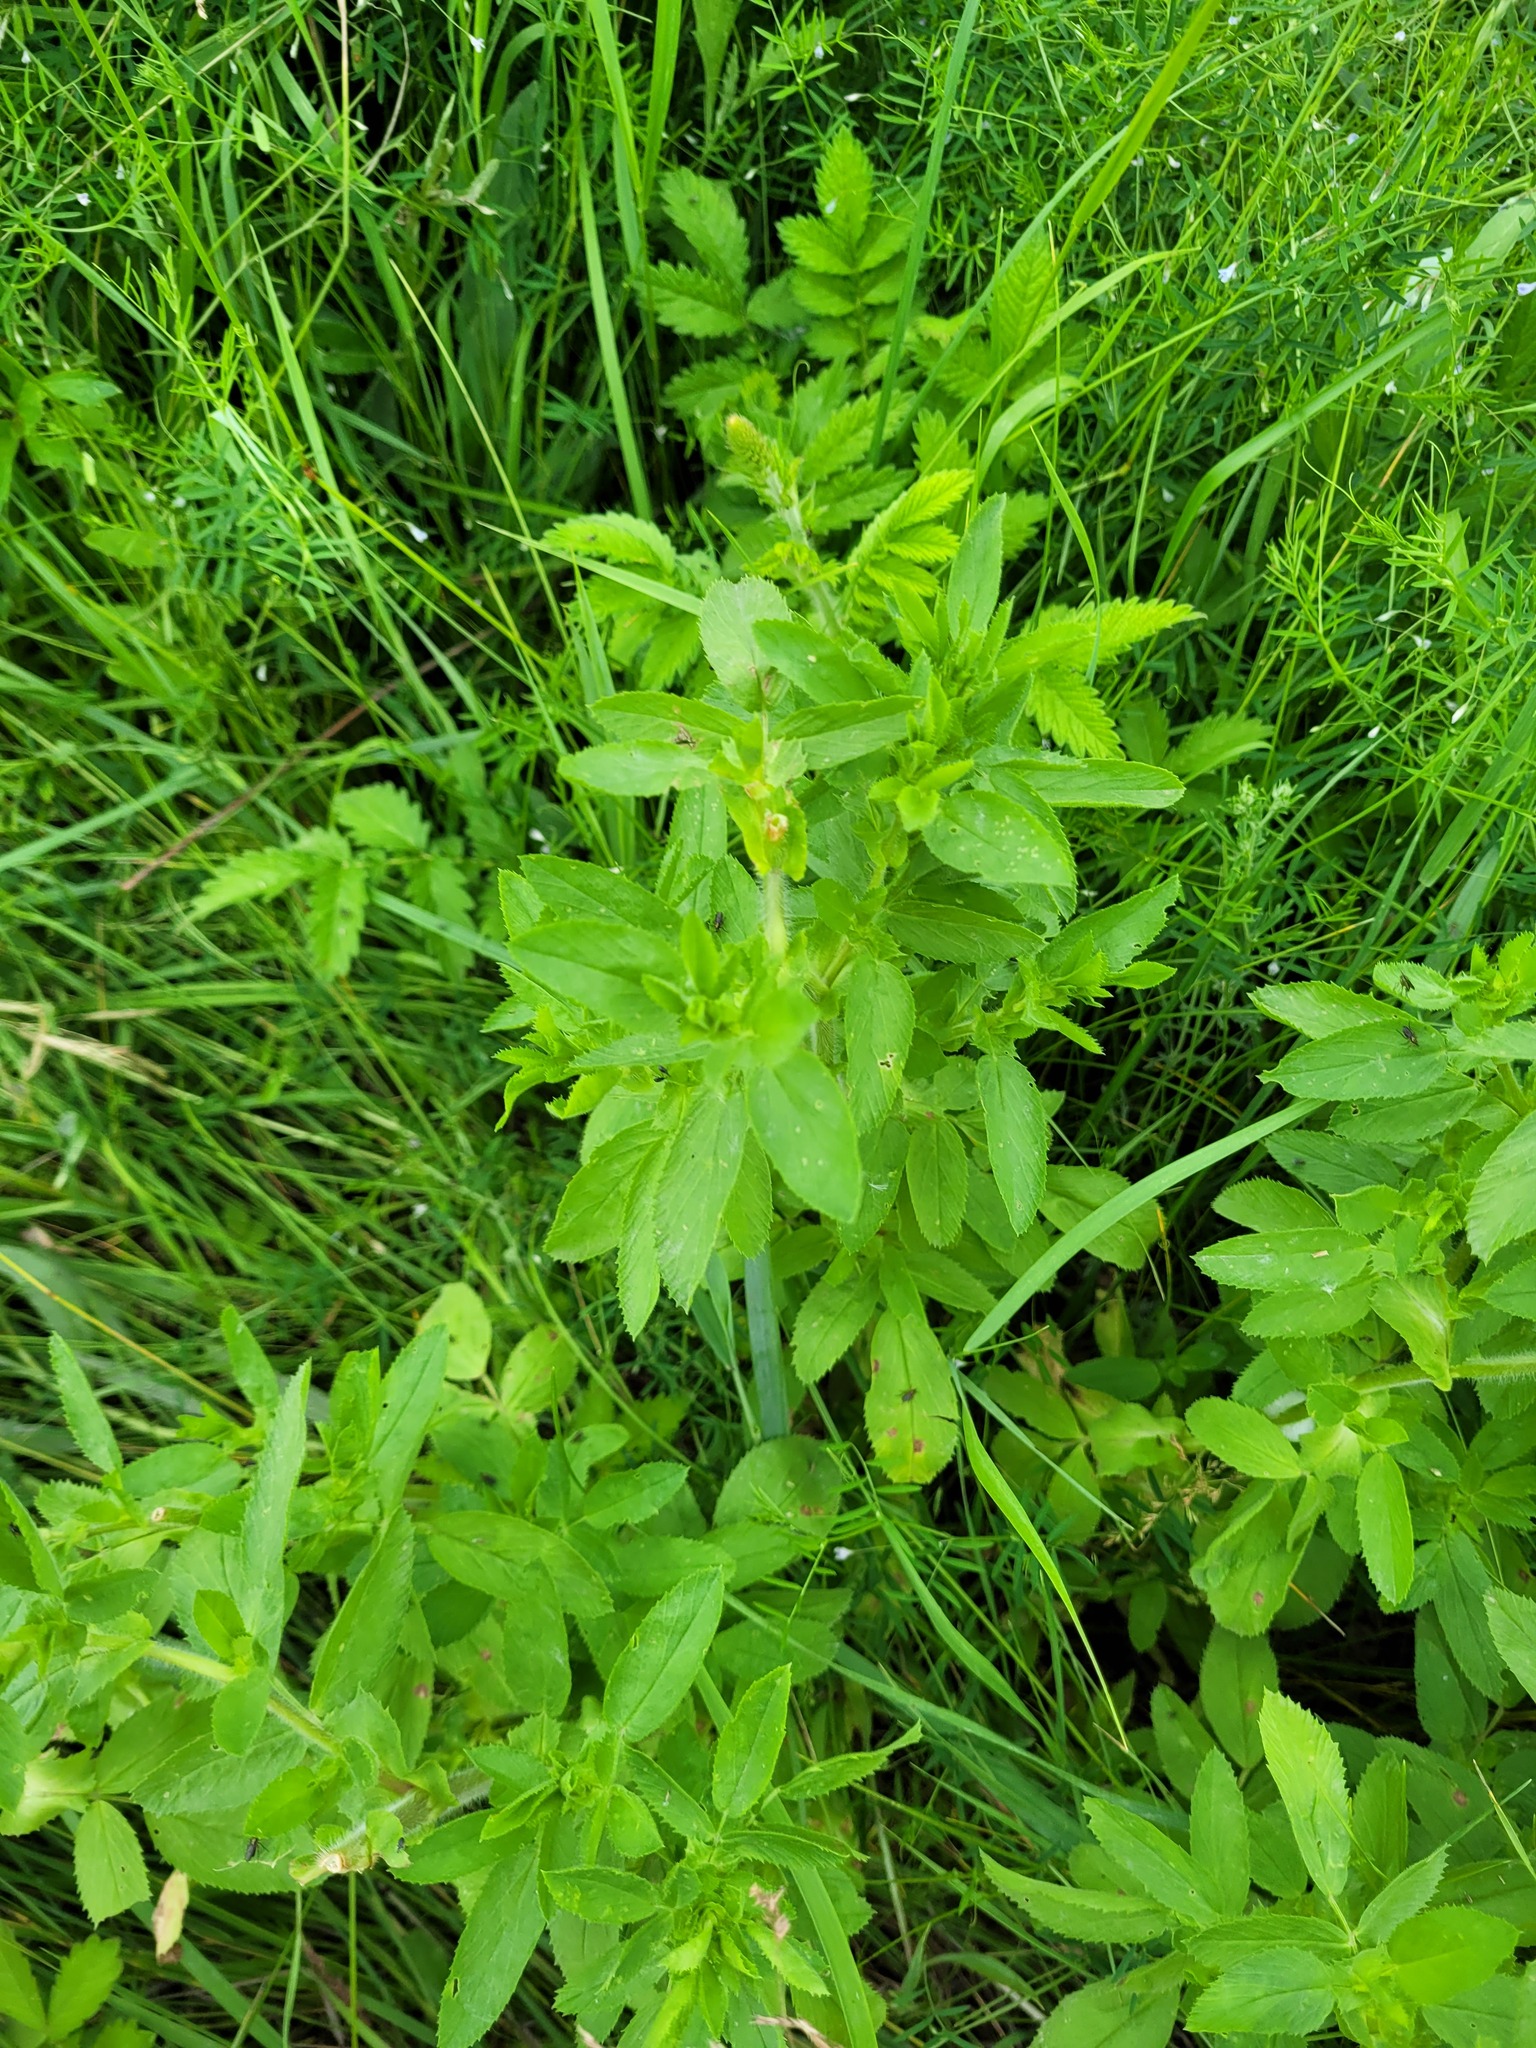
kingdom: Plantae
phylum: Tracheophyta
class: Magnoliopsida
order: Fabales
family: Fabaceae
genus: Ononis
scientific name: Ononis arvensis
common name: Field restharrow
